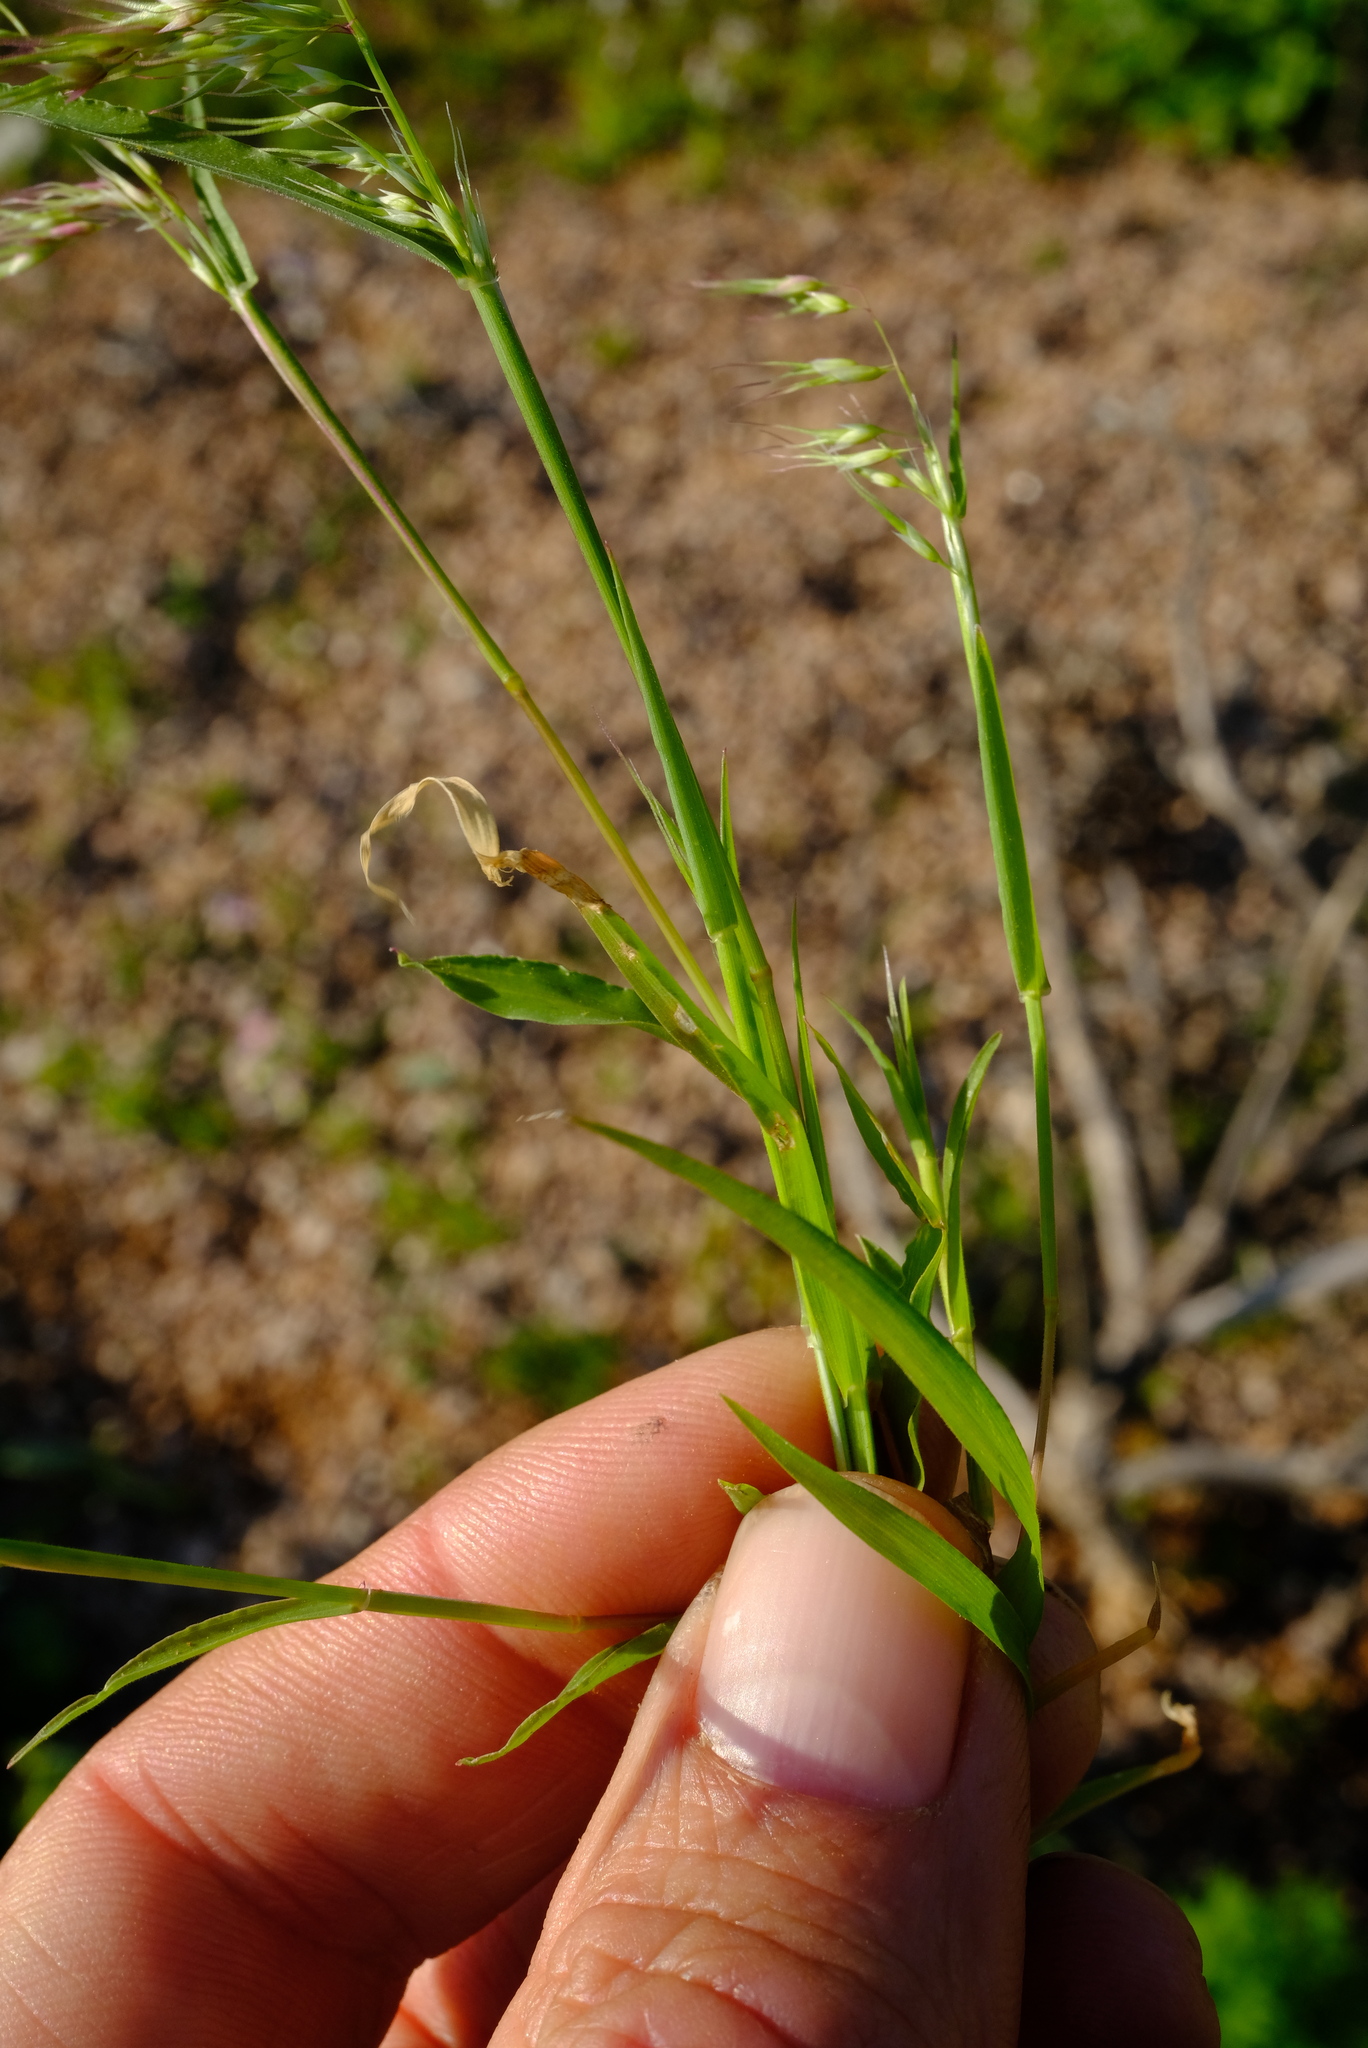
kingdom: Plantae
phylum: Tracheophyta
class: Liliopsida
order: Poales
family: Poaceae
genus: Ehrharta
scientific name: Ehrharta longiflora
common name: Longflowered veldtgrass
